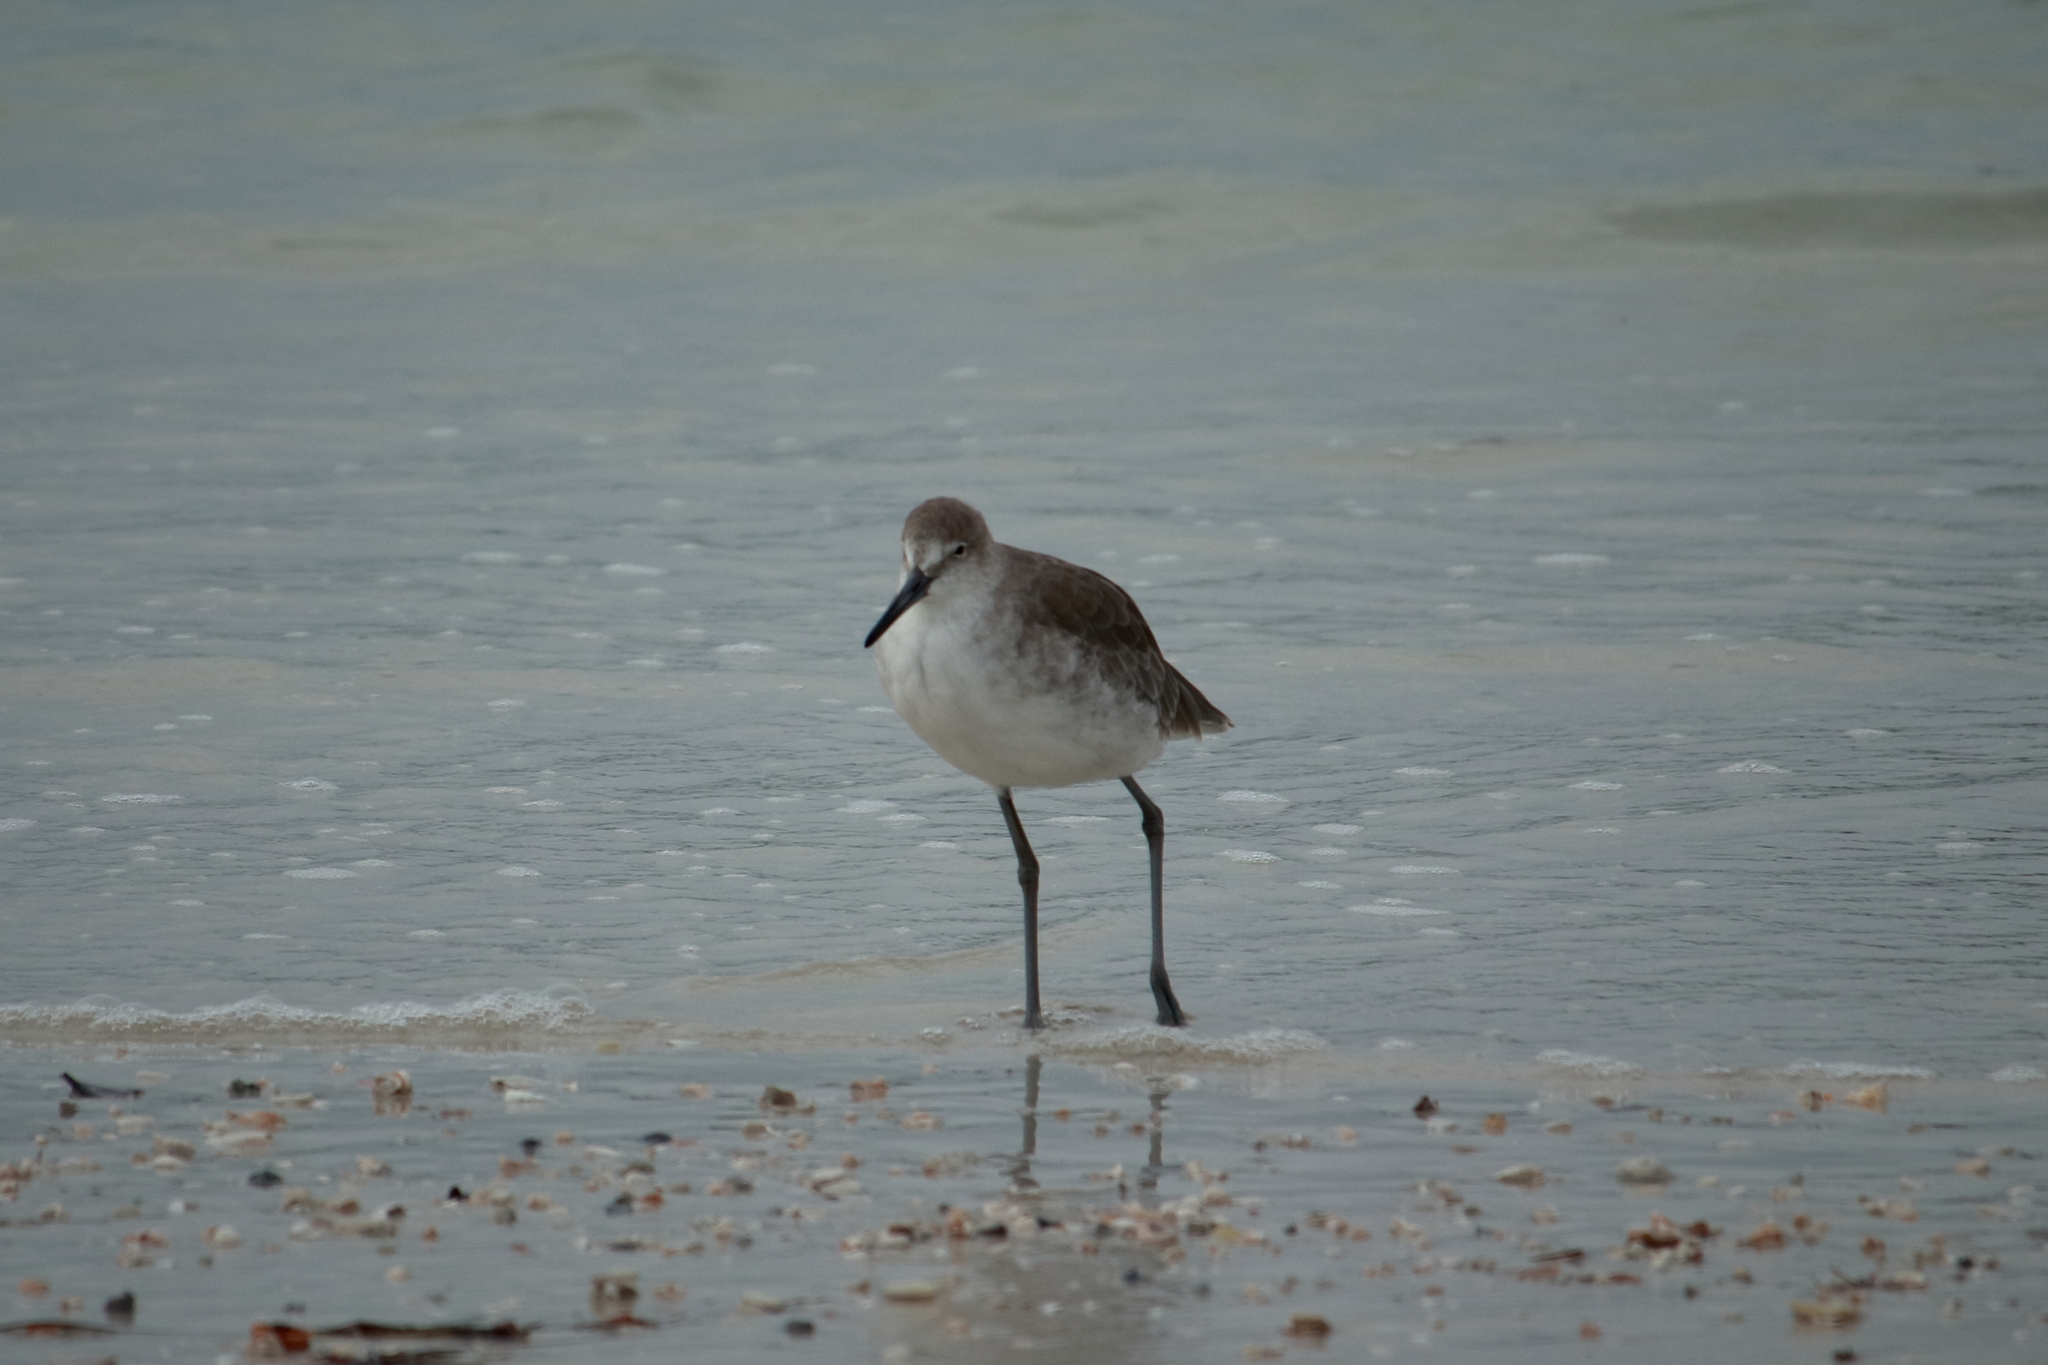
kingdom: Animalia
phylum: Chordata
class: Aves
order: Charadriiformes
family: Scolopacidae
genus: Tringa
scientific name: Tringa semipalmata
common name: Willet
